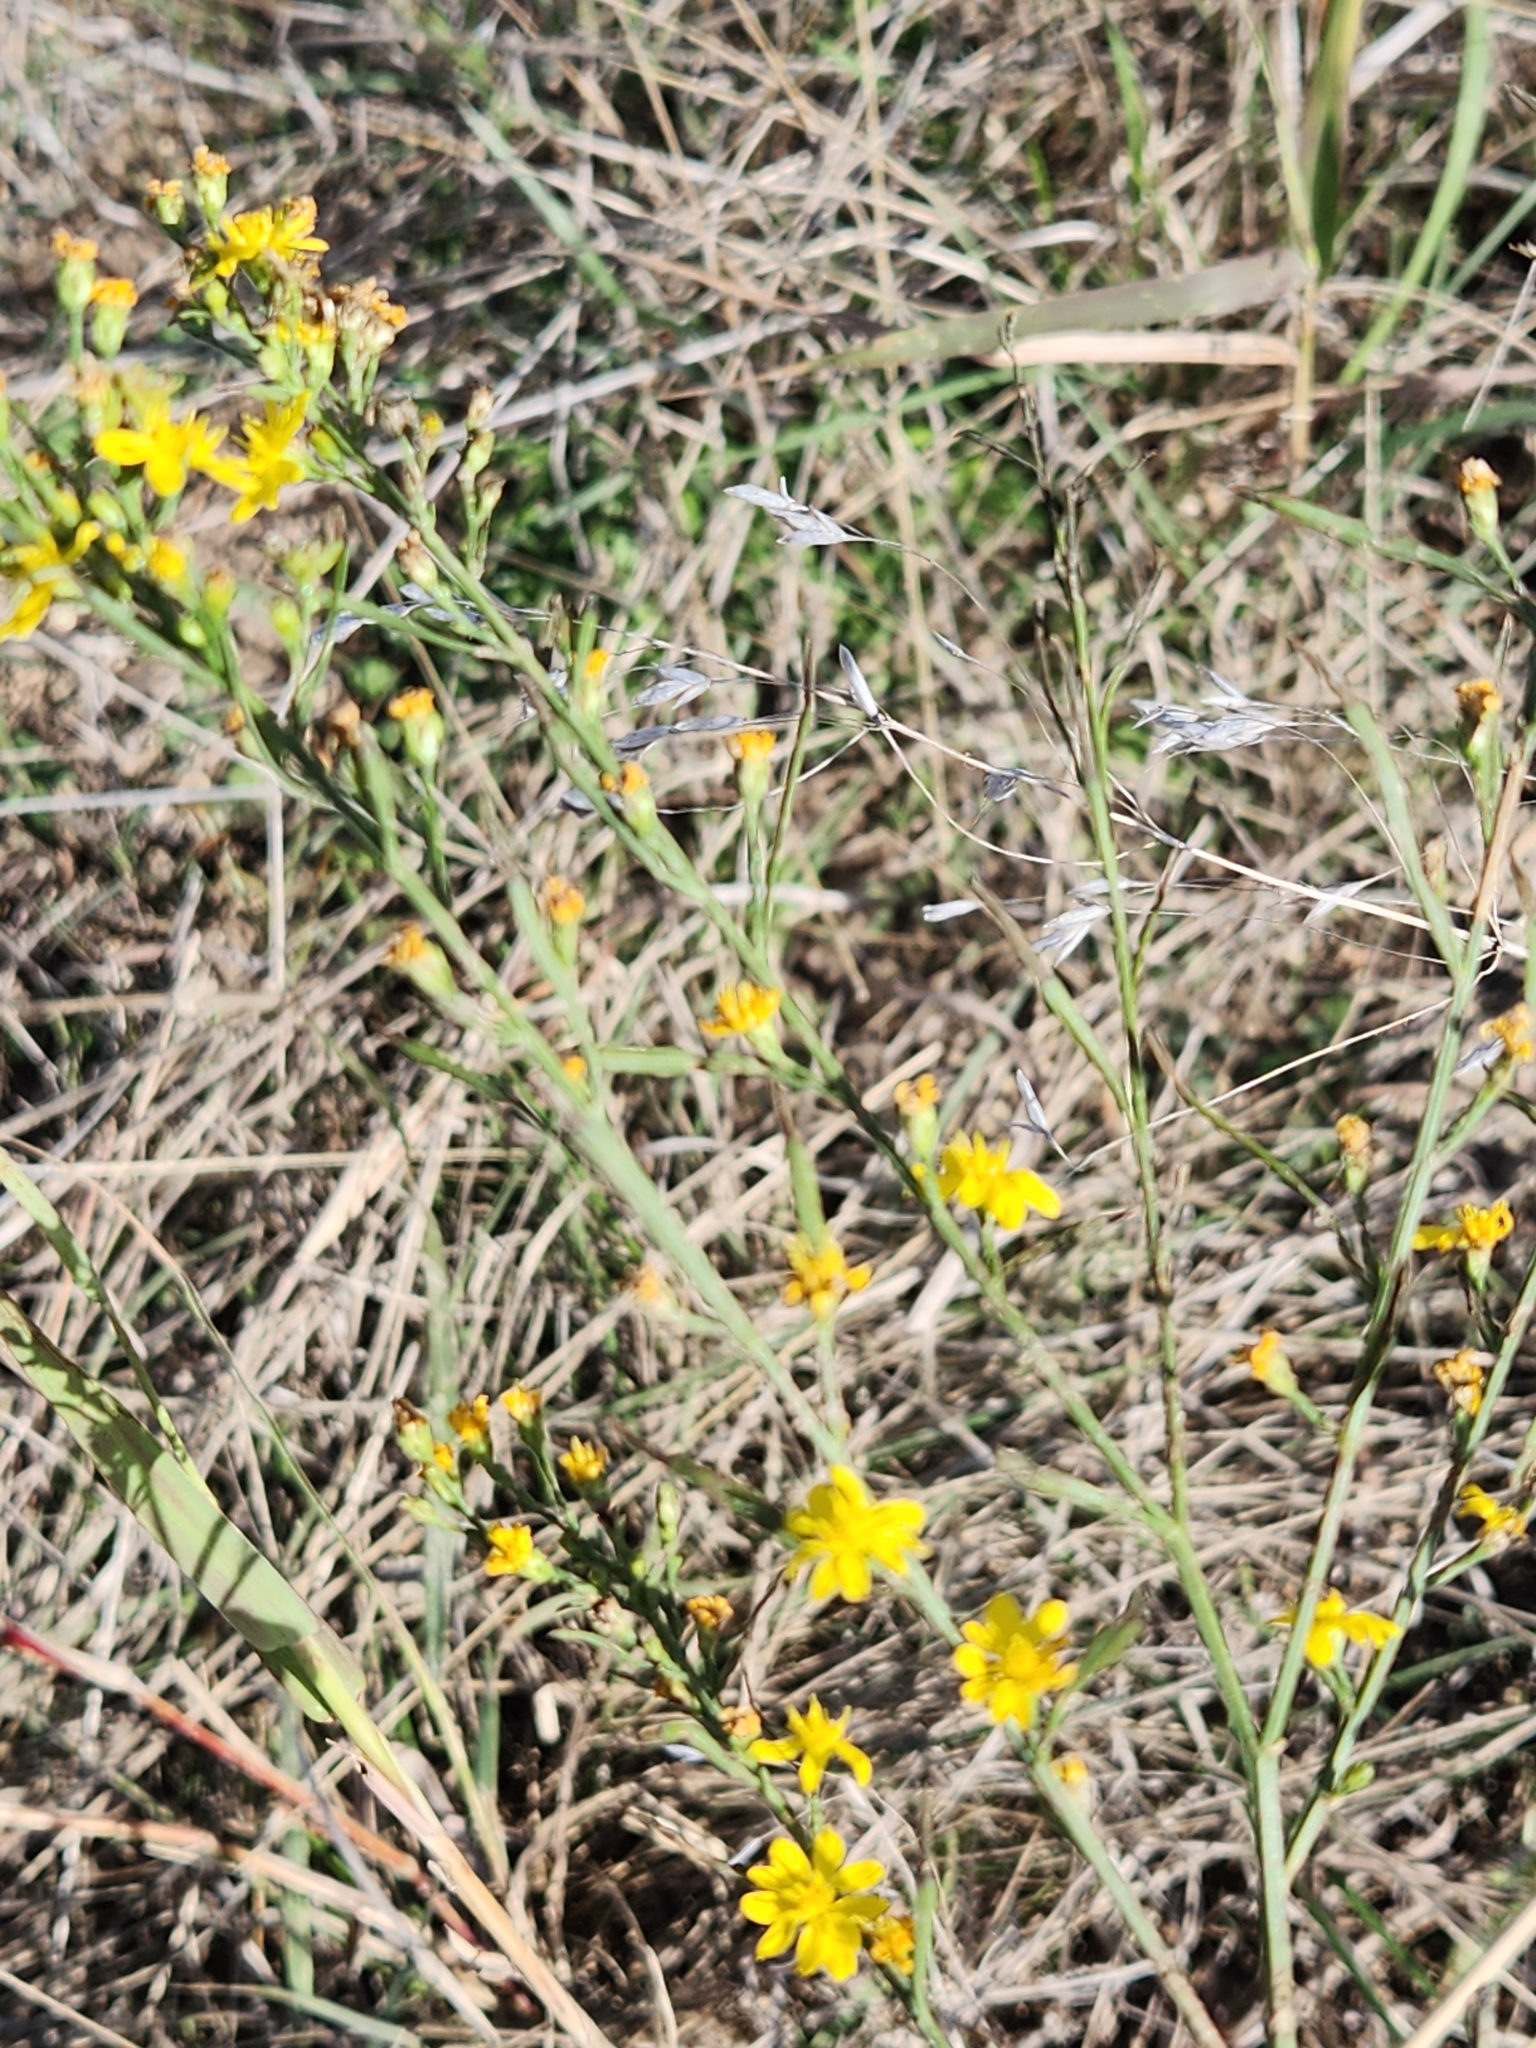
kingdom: Plantae
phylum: Tracheophyta
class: Magnoliopsida
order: Asterales
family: Asteraceae
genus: Gutierrezia
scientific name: Gutierrezia texana
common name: Texas snakeweed
